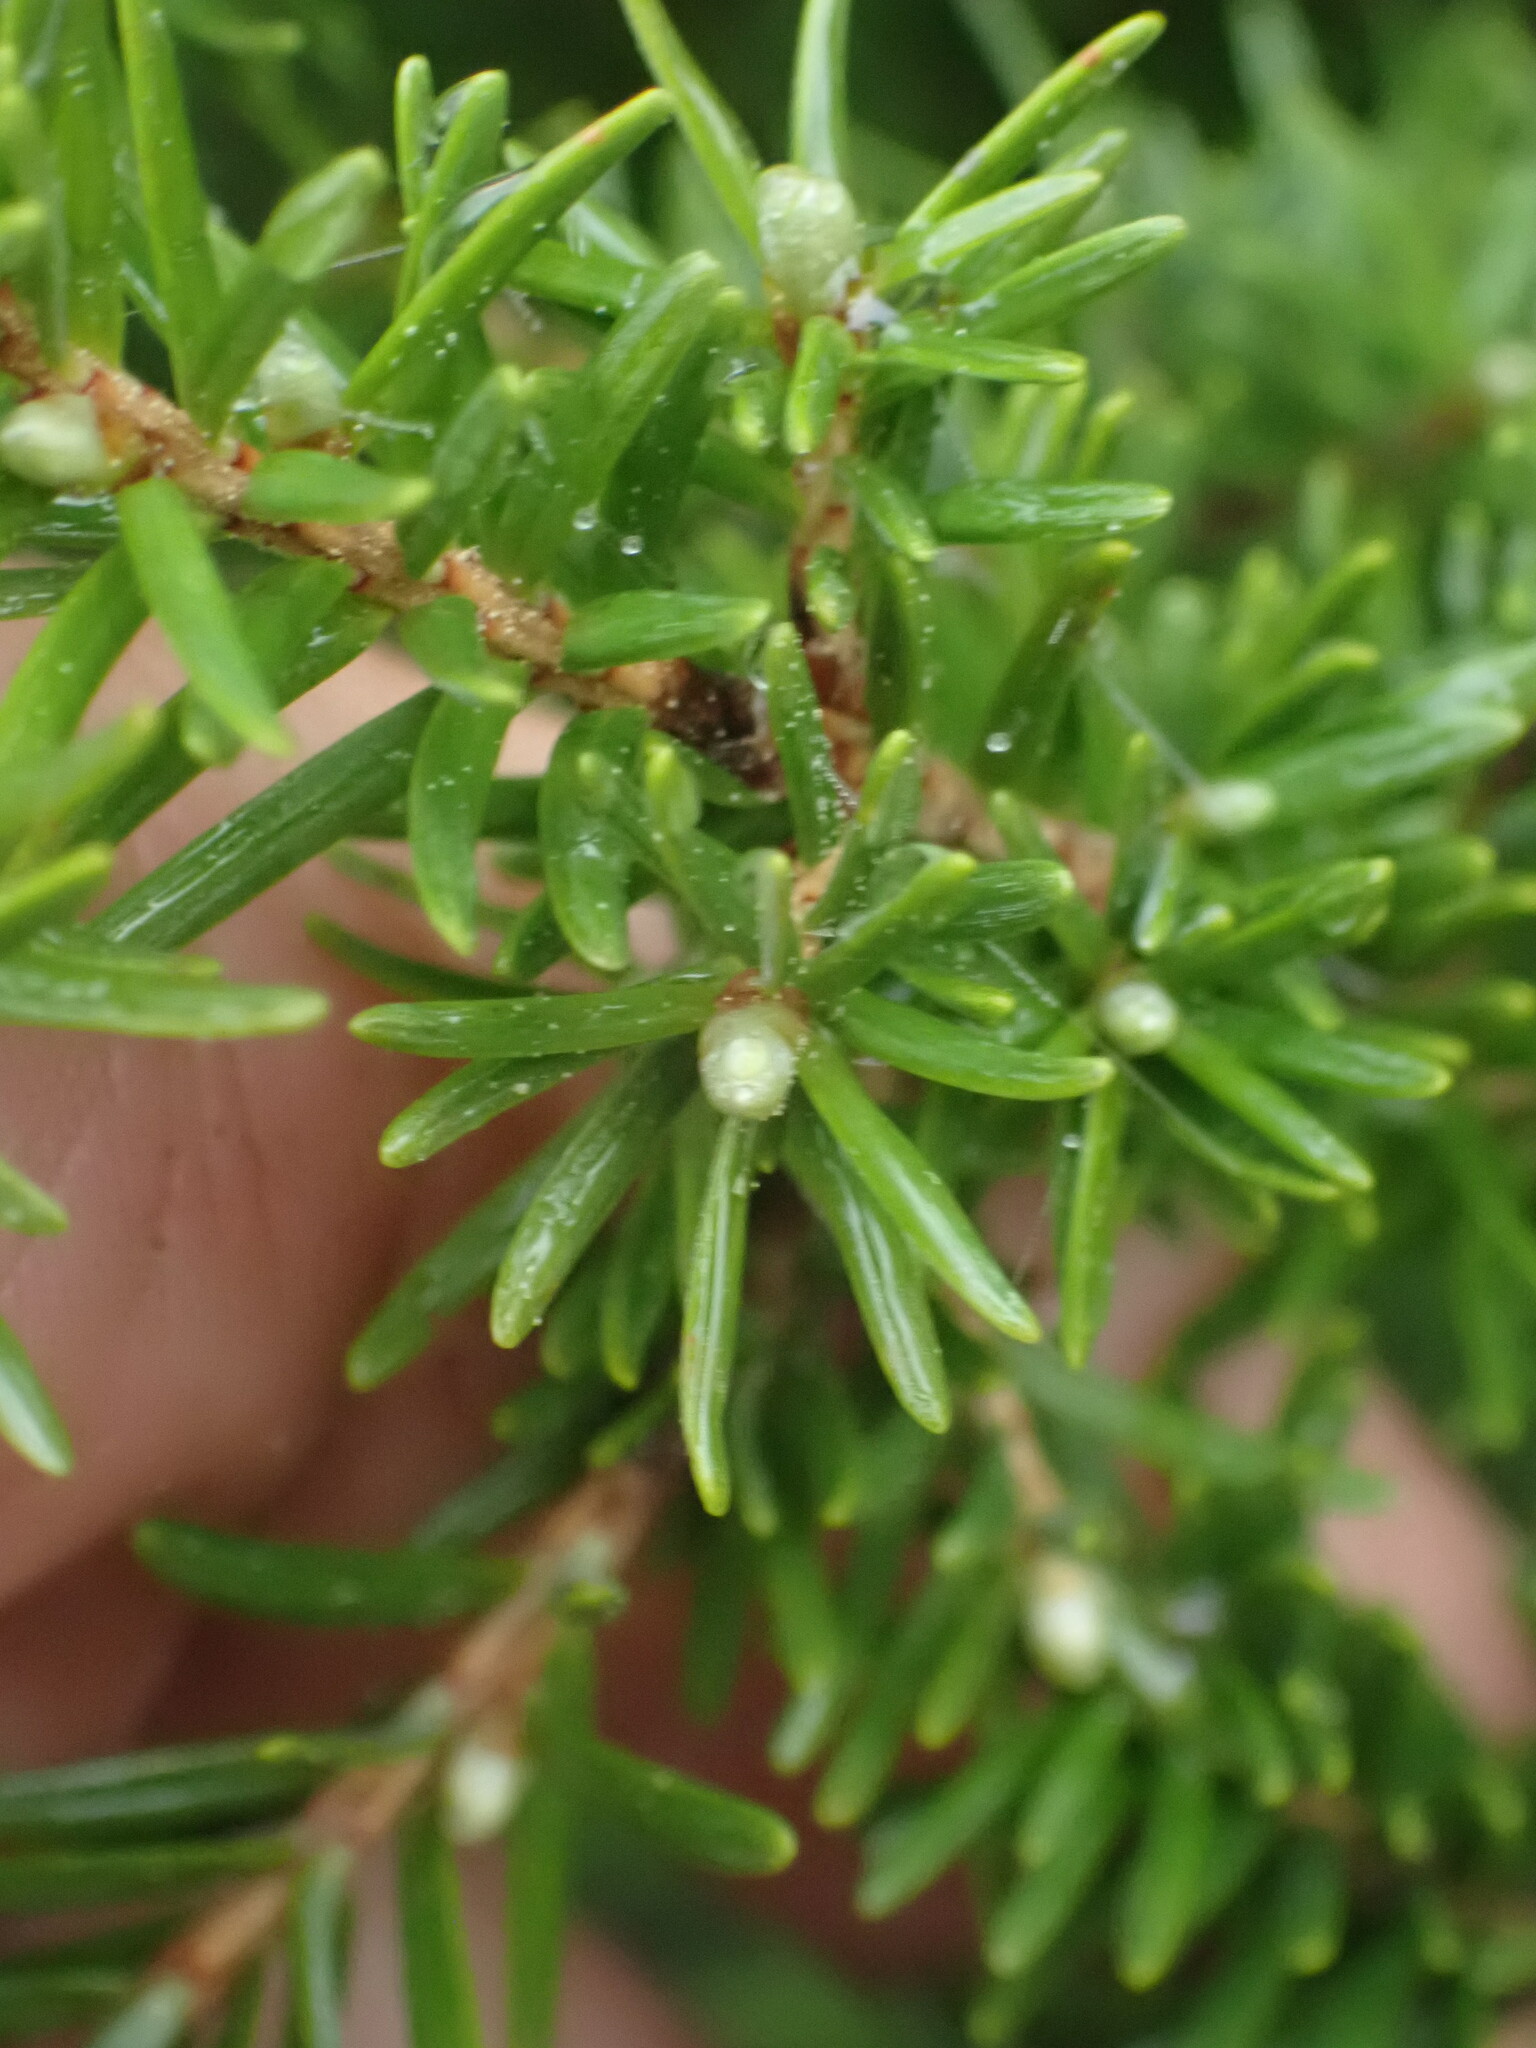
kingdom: Plantae
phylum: Tracheophyta
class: Pinopsida
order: Pinales
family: Pinaceae
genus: Tsuga
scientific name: Tsuga mertensiana
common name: Mountain hemlock
